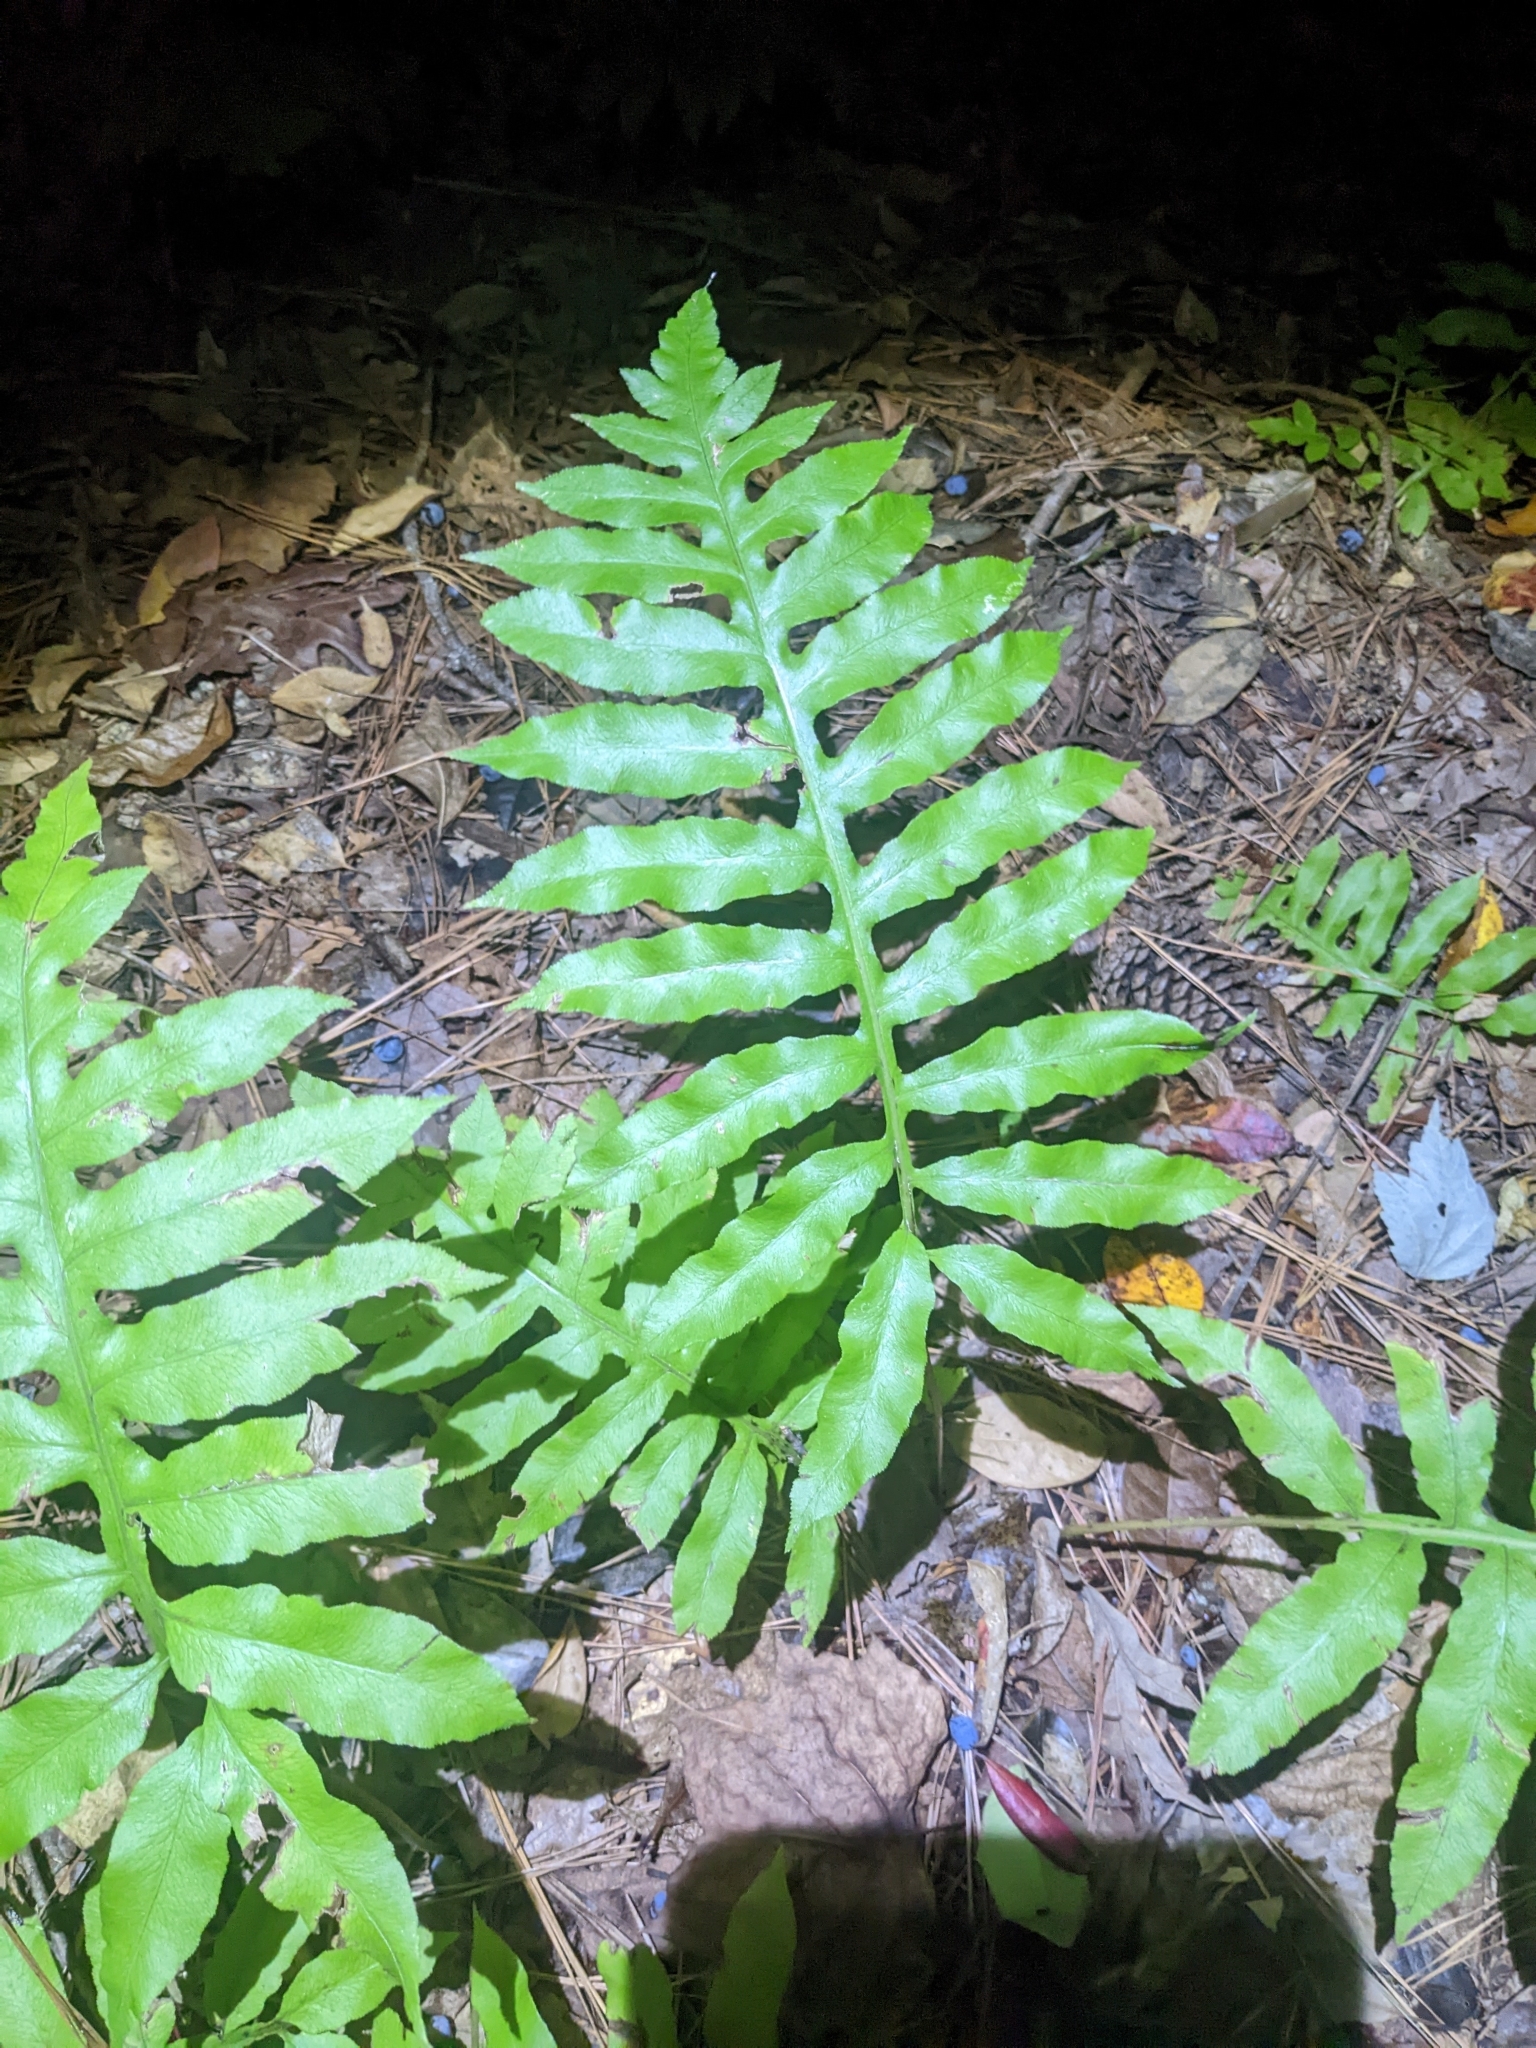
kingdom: Plantae
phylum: Tracheophyta
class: Polypodiopsida
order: Polypodiales
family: Blechnaceae
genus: Lorinseria
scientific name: Lorinseria areolata
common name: Dwarf chain fern
